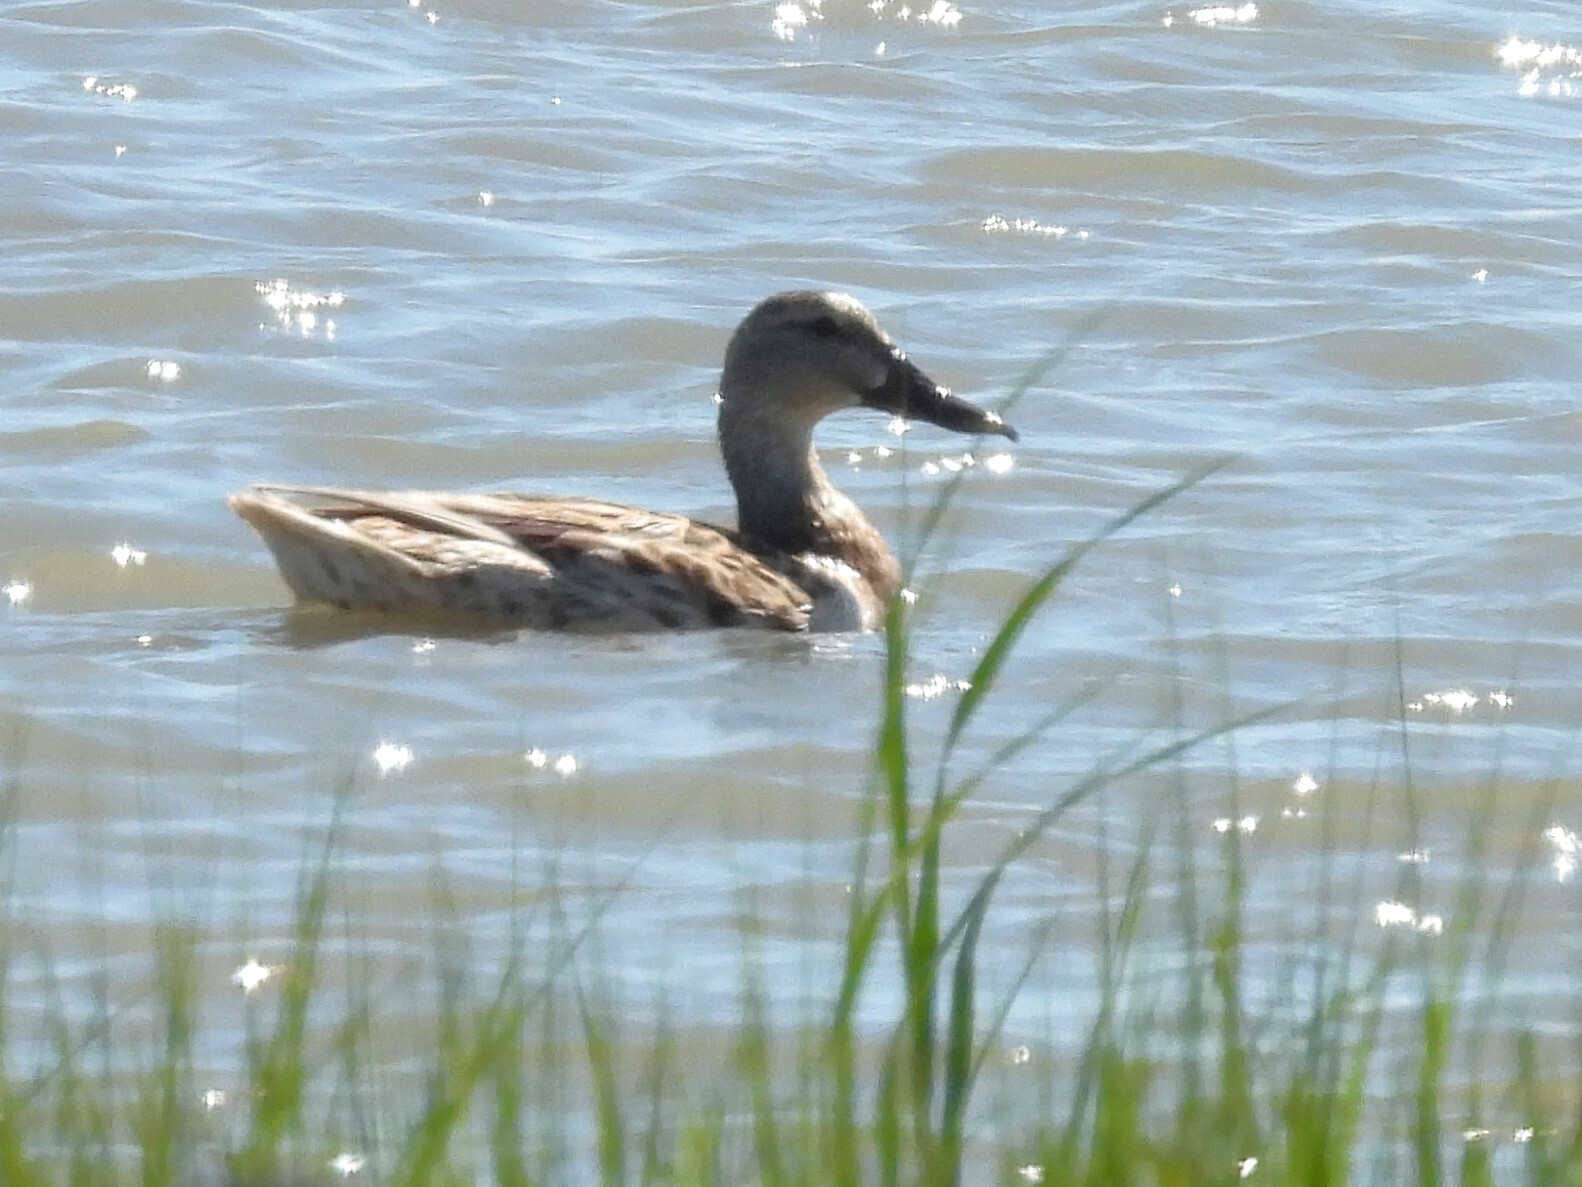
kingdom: Animalia
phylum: Chordata
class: Aves
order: Anseriformes
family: Anatidae
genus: Spatula
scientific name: Spatula clypeata
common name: Northern shoveler
